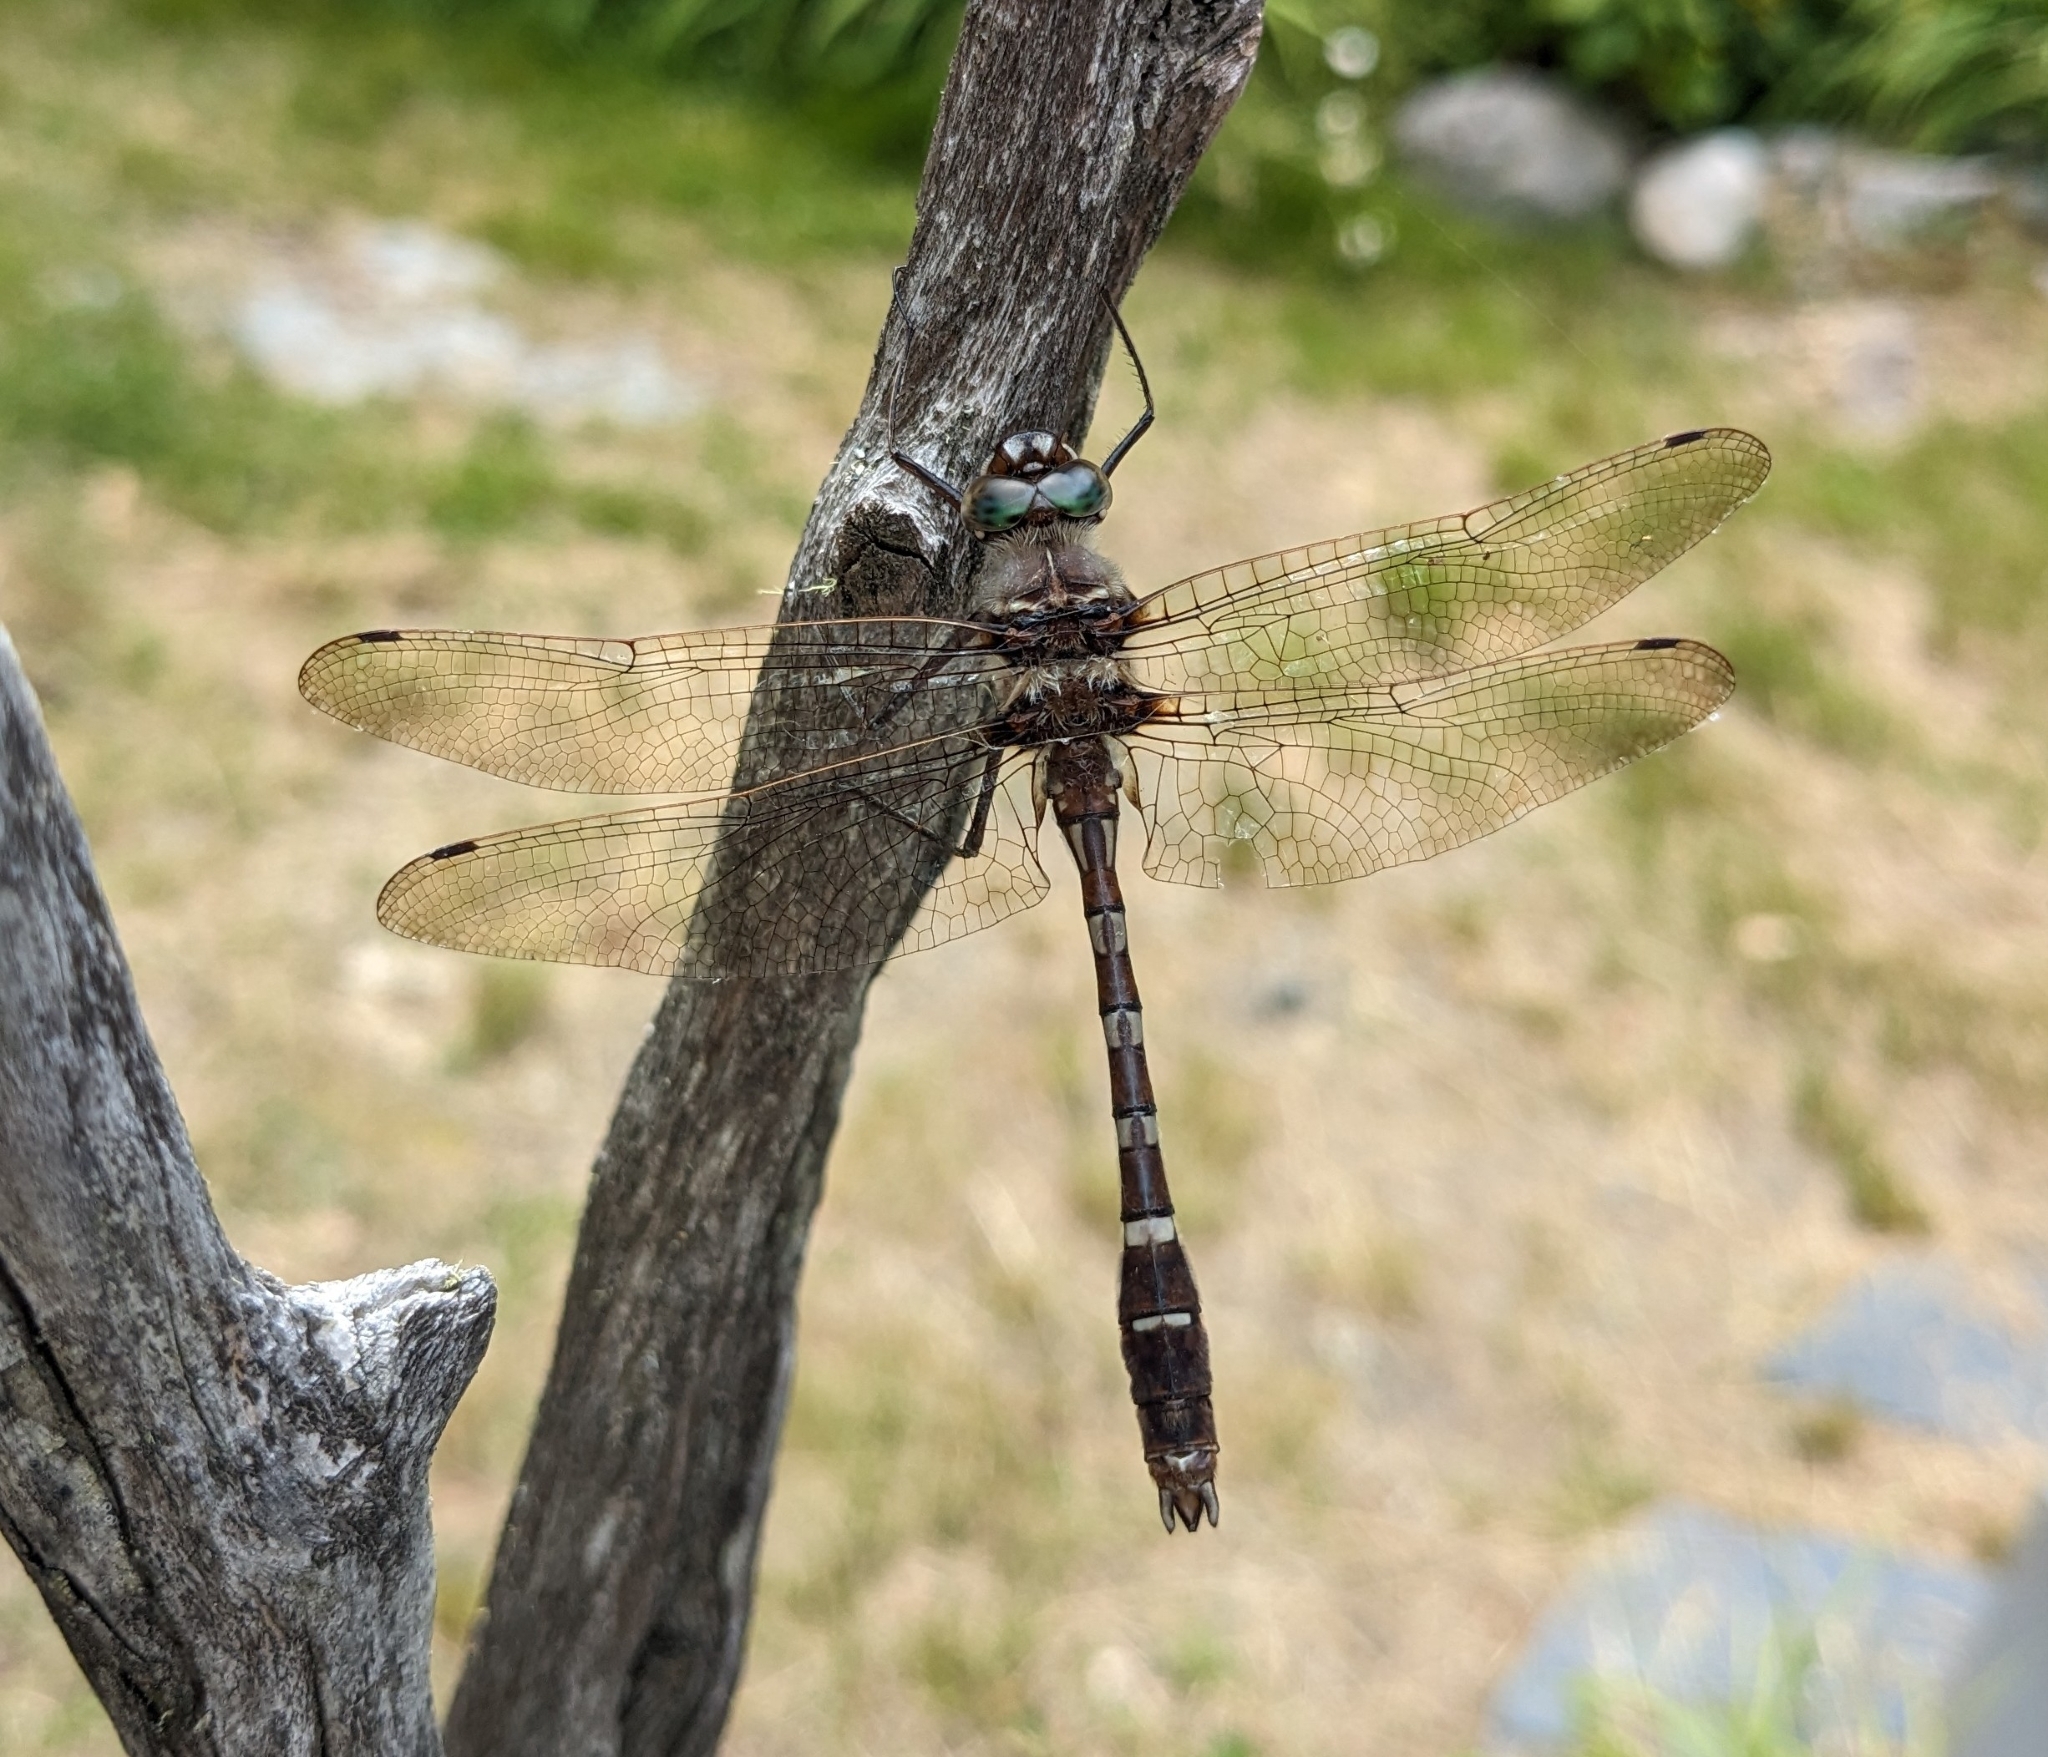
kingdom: Animalia
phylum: Arthropoda
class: Insecta
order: Odonata
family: Macromiidae
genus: Didymops
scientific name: Didymops transversa
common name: Stream cruiser
